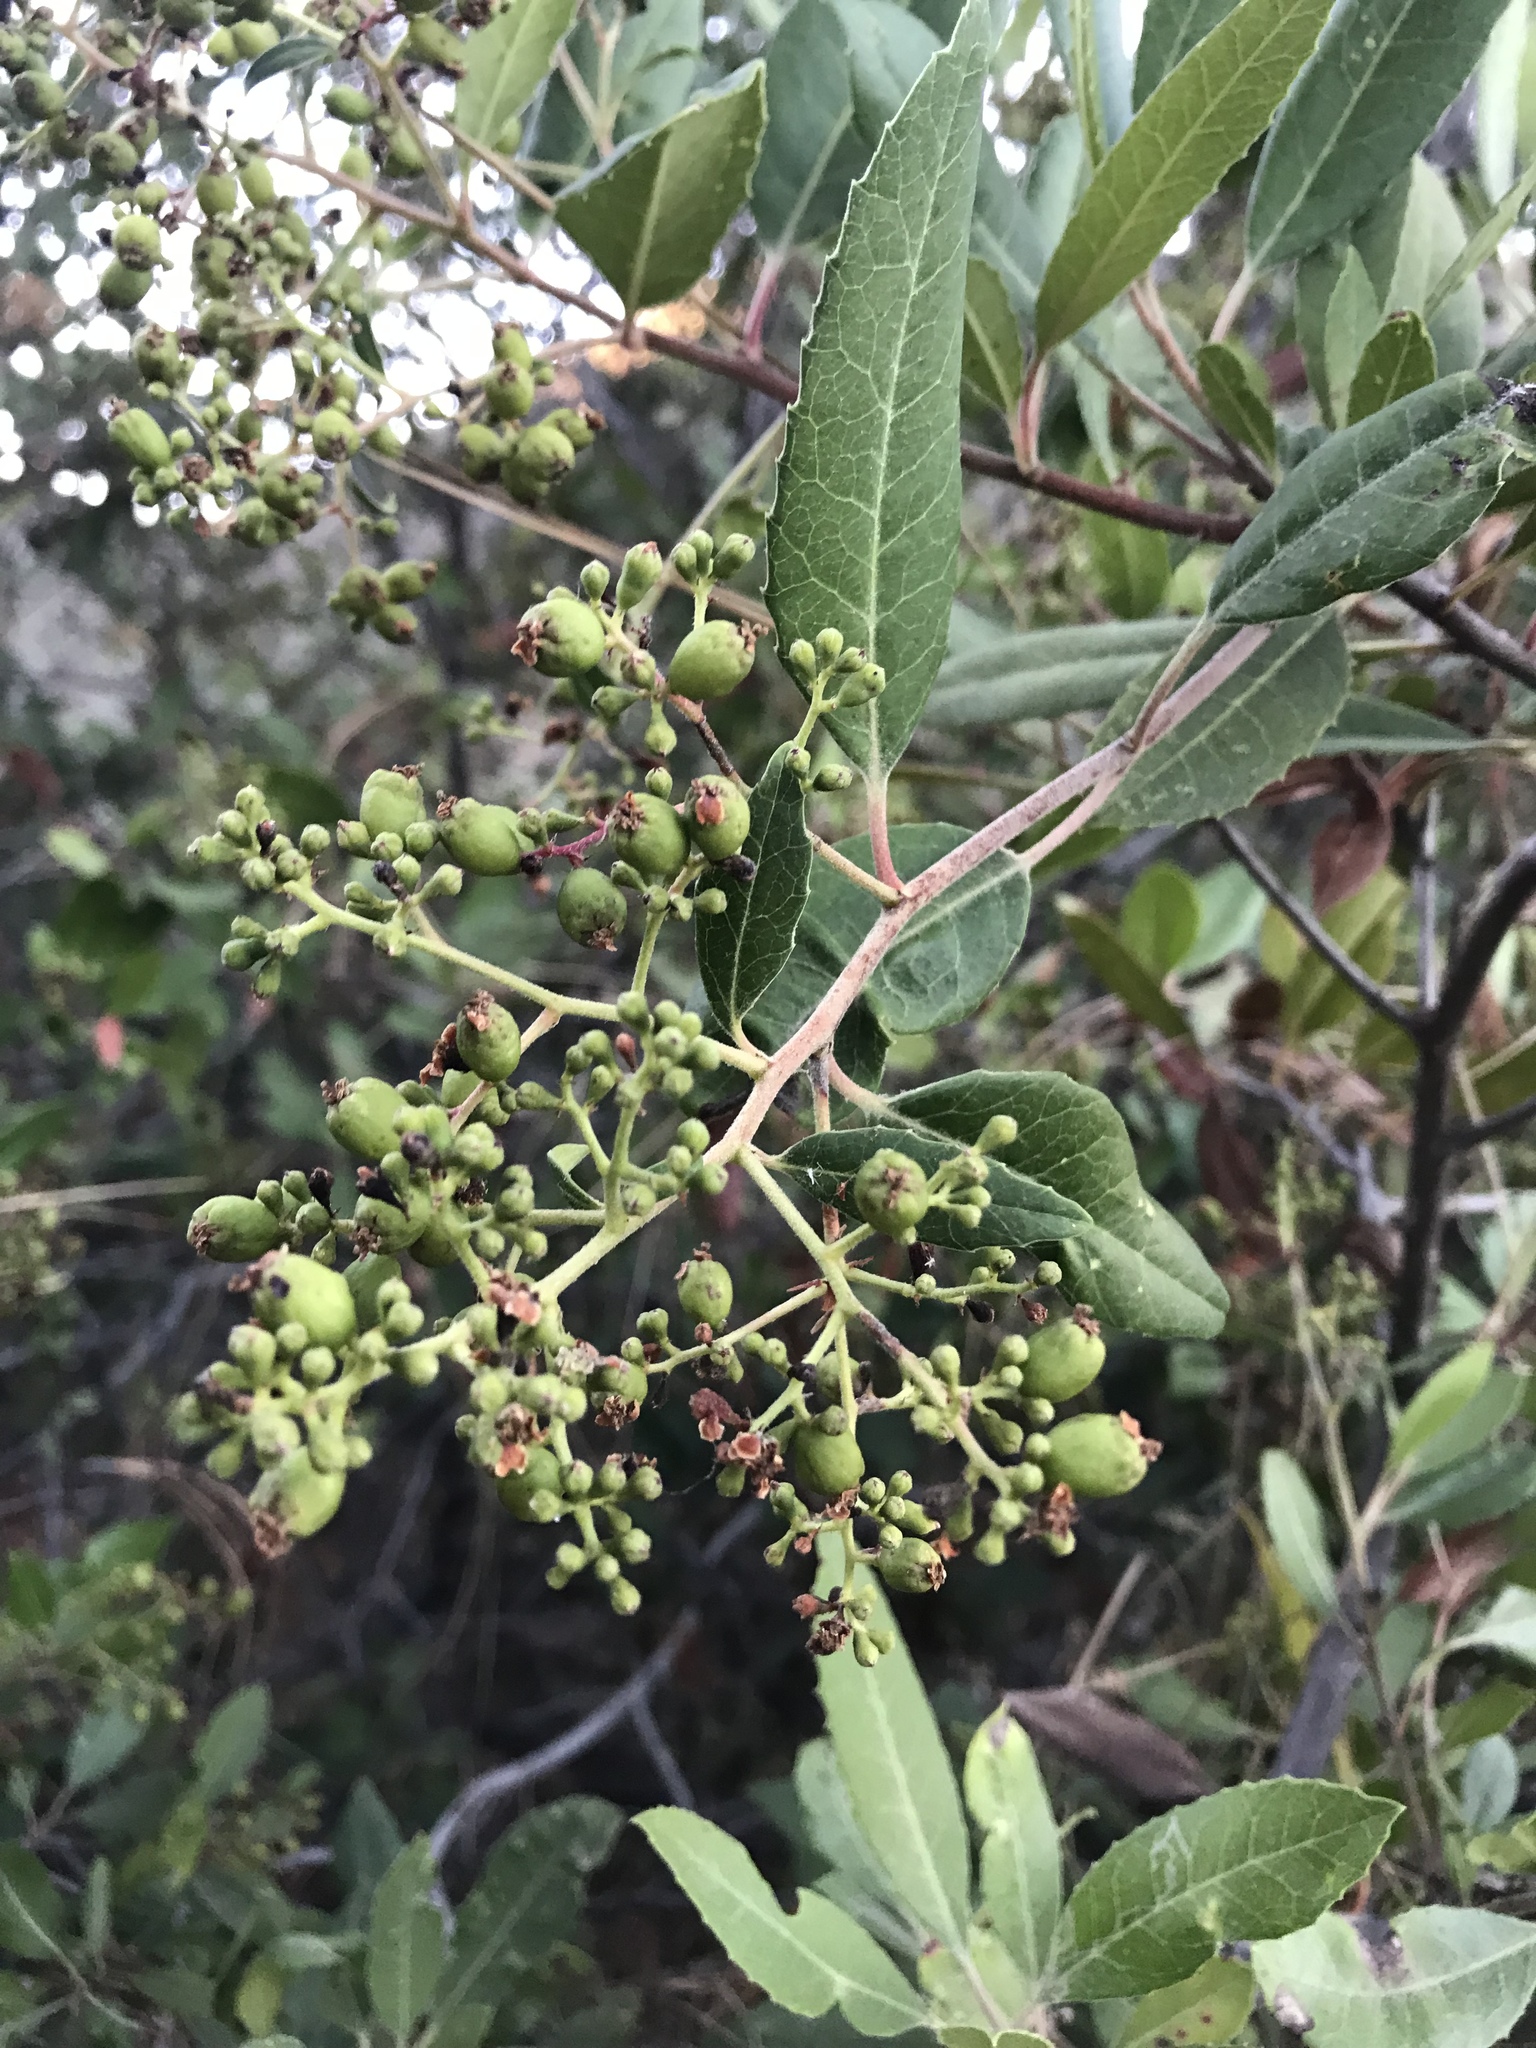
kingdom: Plantae
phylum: Tracheophyta
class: Magnoliopsida
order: Rosales
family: Rosaceae
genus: Heteromeles
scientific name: Heteromeles arbutifolia
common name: California-holly
